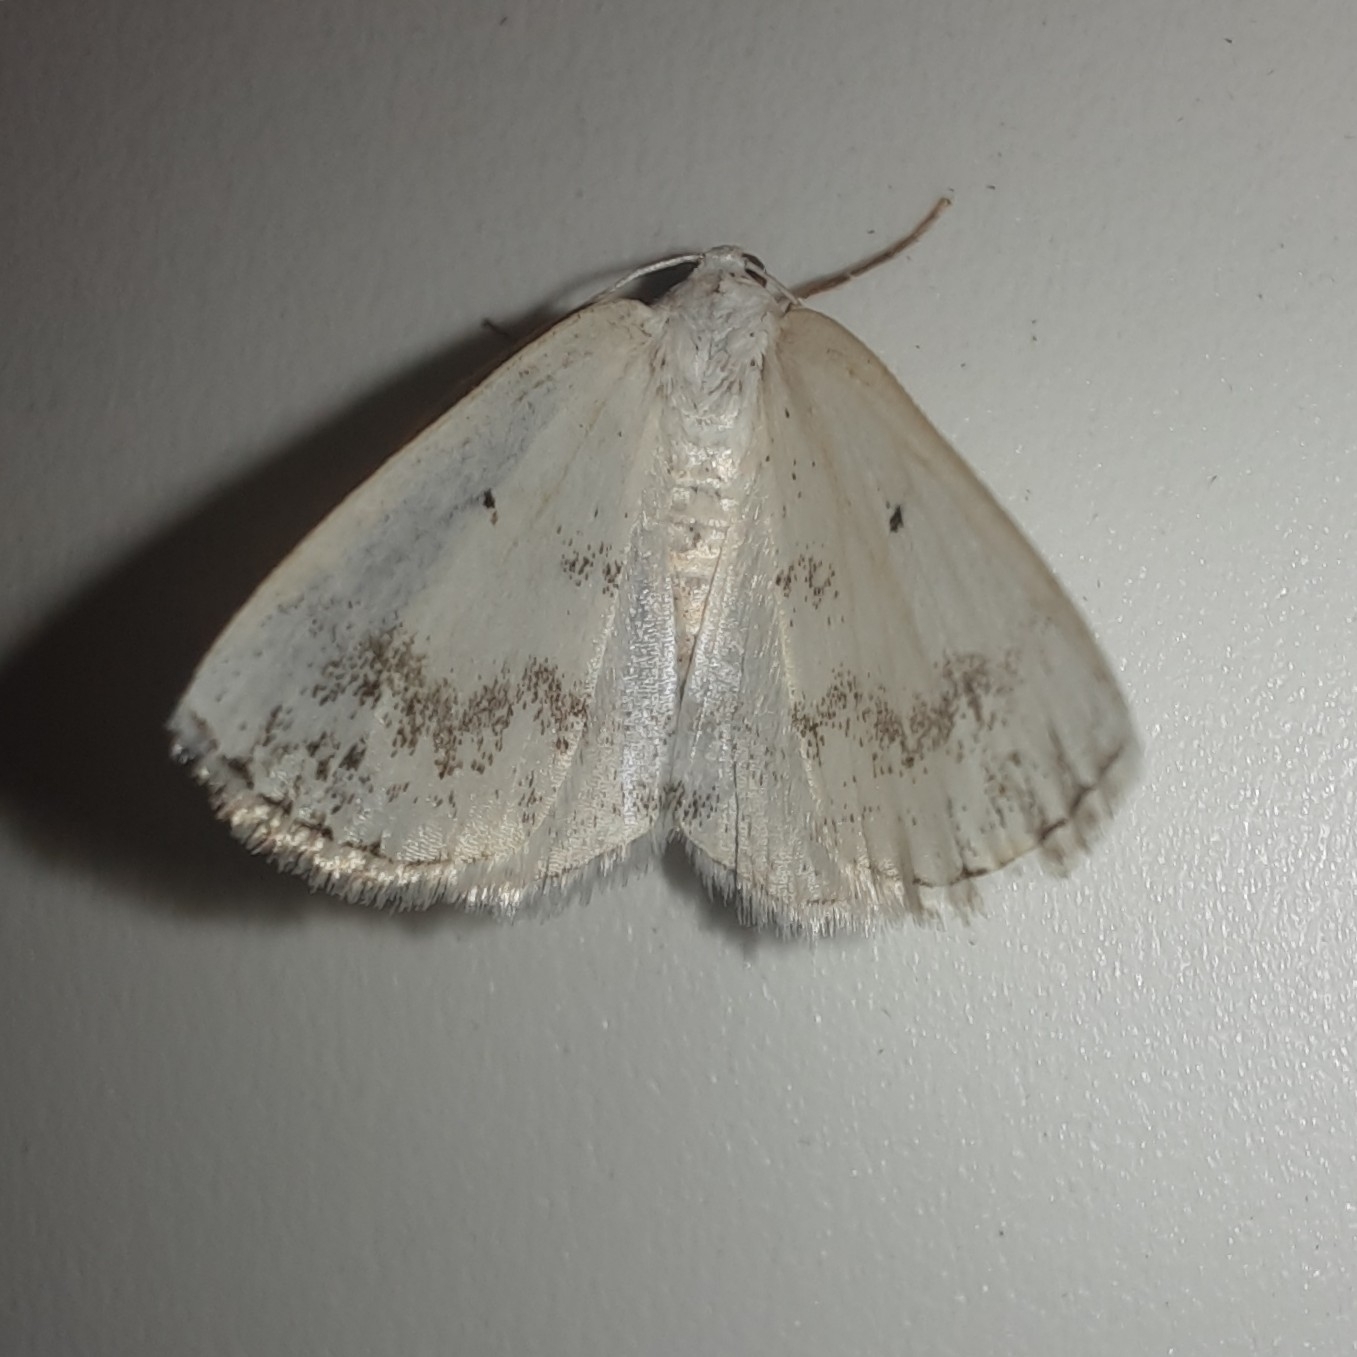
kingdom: Animalia
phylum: Arthropoda
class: Insecta
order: Lepidoptera
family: Geometridae
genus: Lomographa
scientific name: Lomographa temerata
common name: Clouded silver
